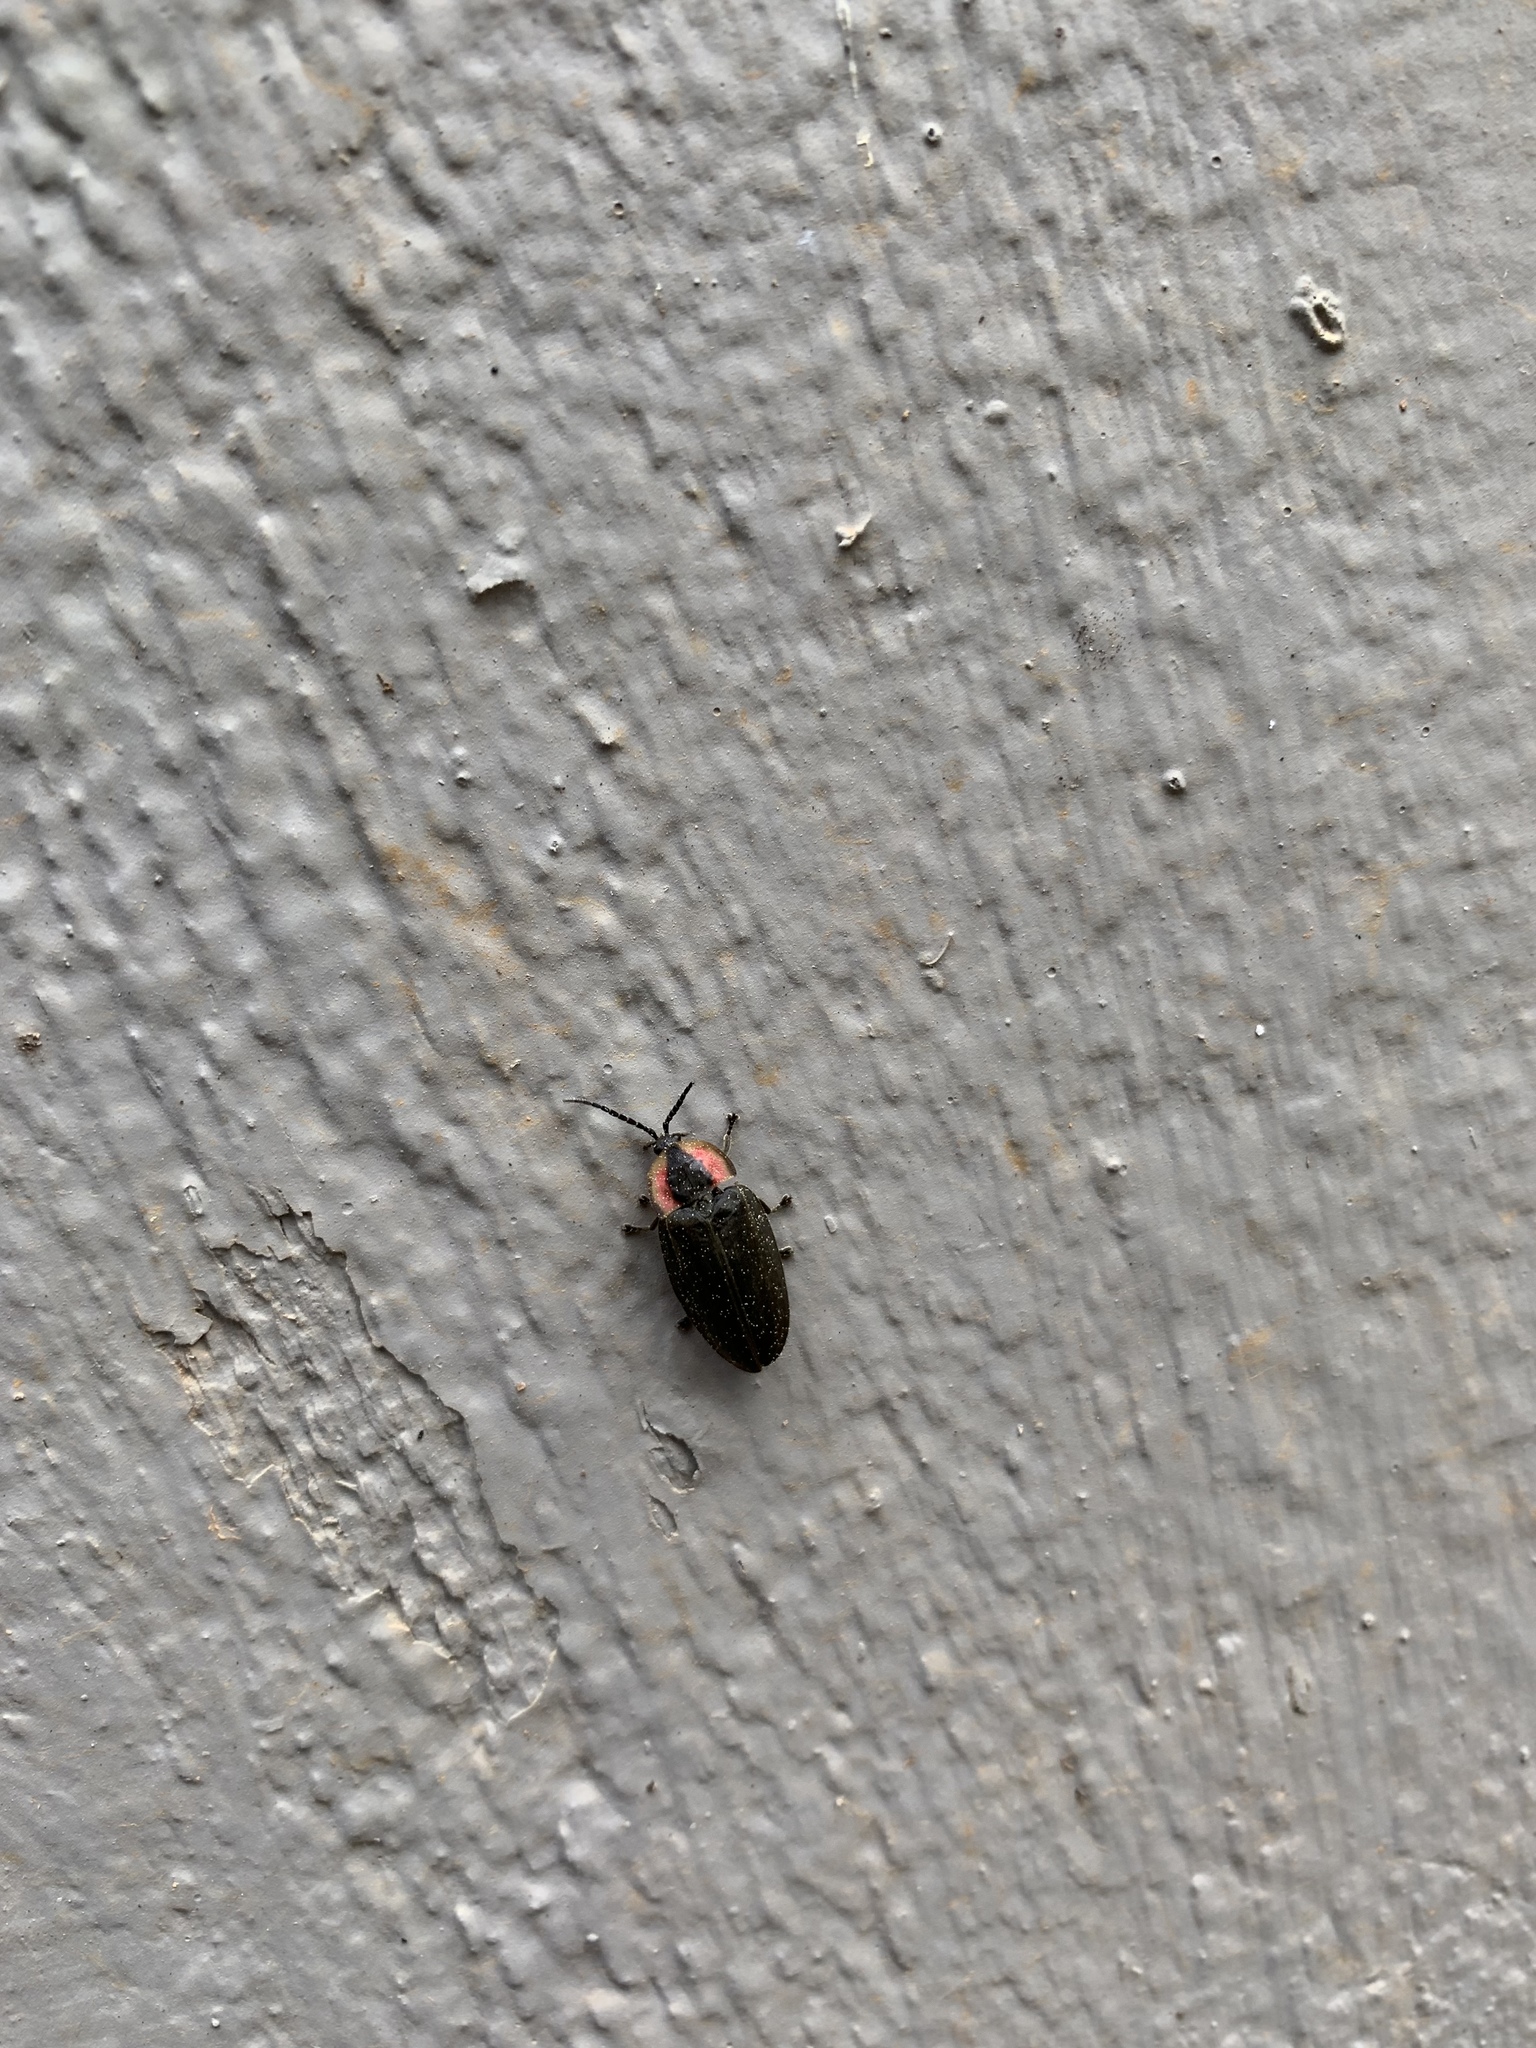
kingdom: Animalia
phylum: Arthropoda
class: Insecta
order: Coleoptera
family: Lampyridae
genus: Photinus
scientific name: Photinus corrusca
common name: Winter firefly
